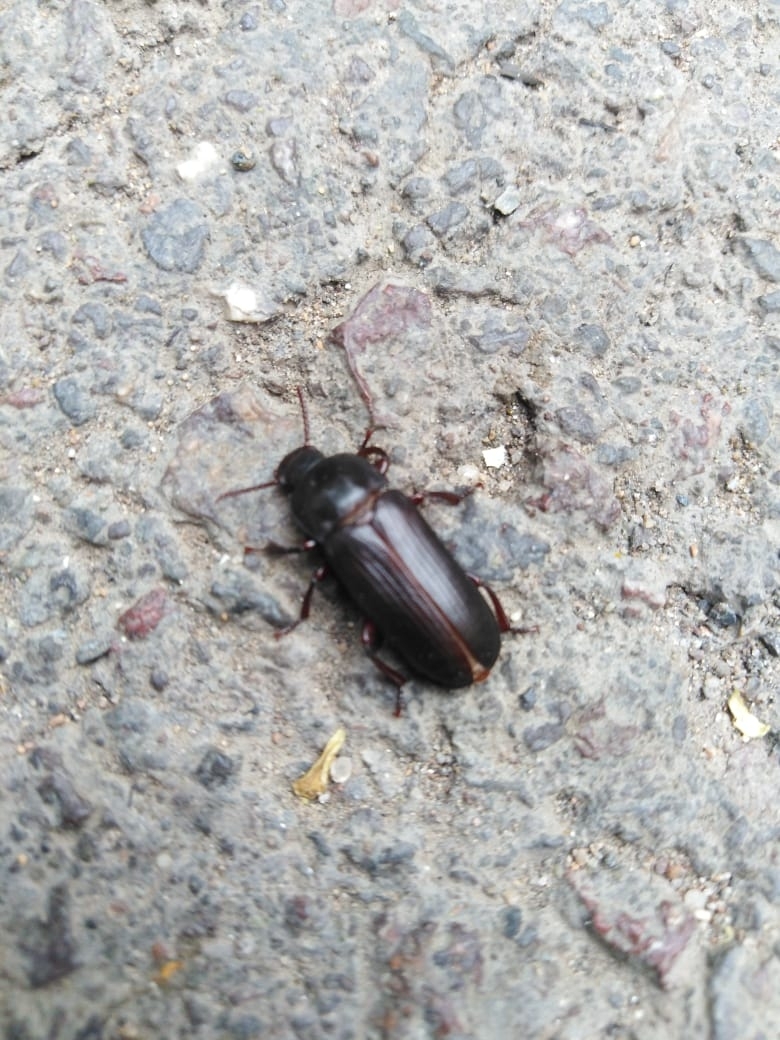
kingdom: Animalia
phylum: Arthropoda
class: Insecta
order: Coleoptera
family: Tenebrionidae
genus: Tenebrio
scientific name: Tenebrio molitor
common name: Hardback beetle
